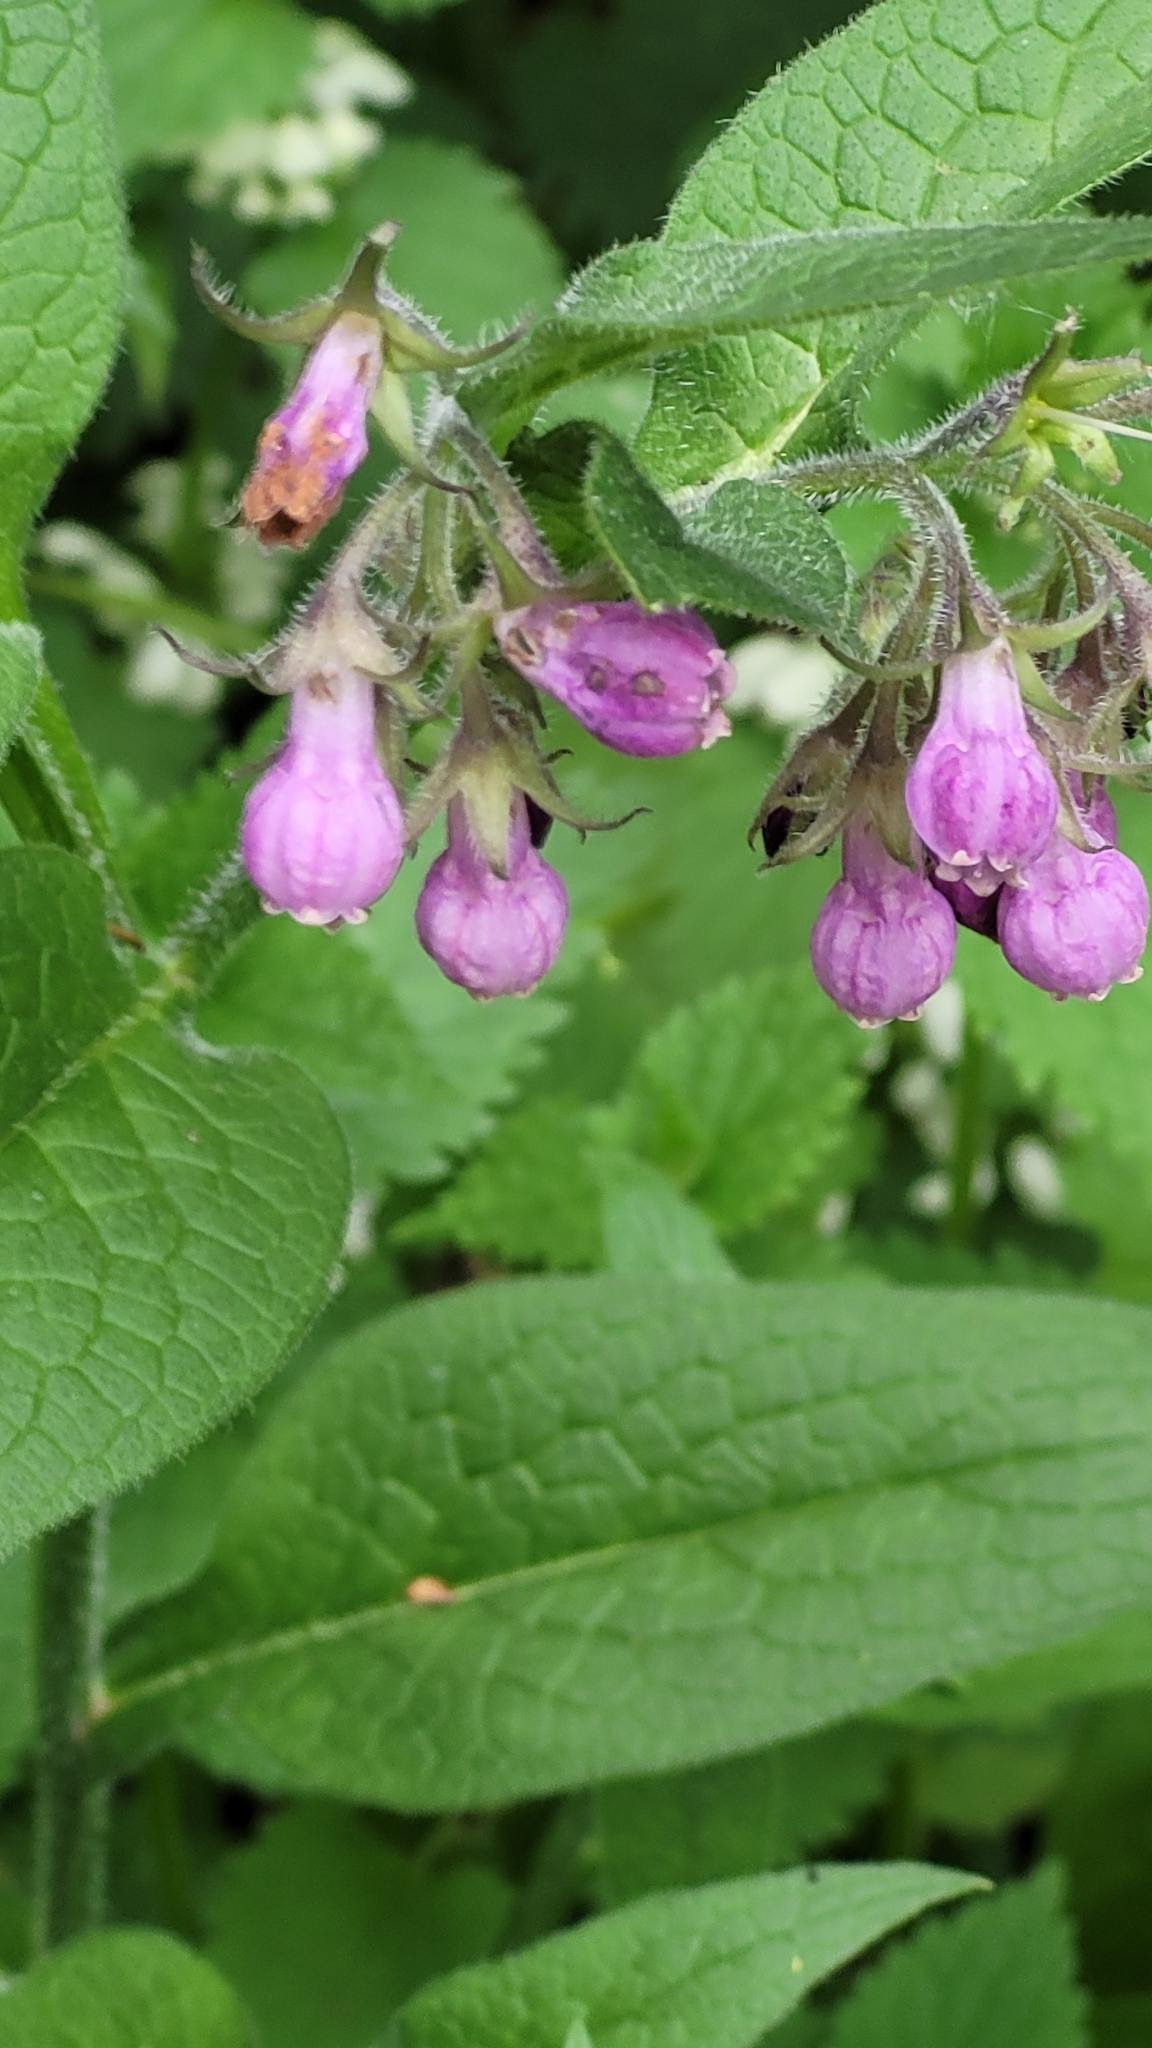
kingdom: Plantae
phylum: Tracheophyta
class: Magnoliopsida
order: Boraginales
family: Boraginaceae
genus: Symphytum
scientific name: Symphytum officinale
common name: Common comfrey
